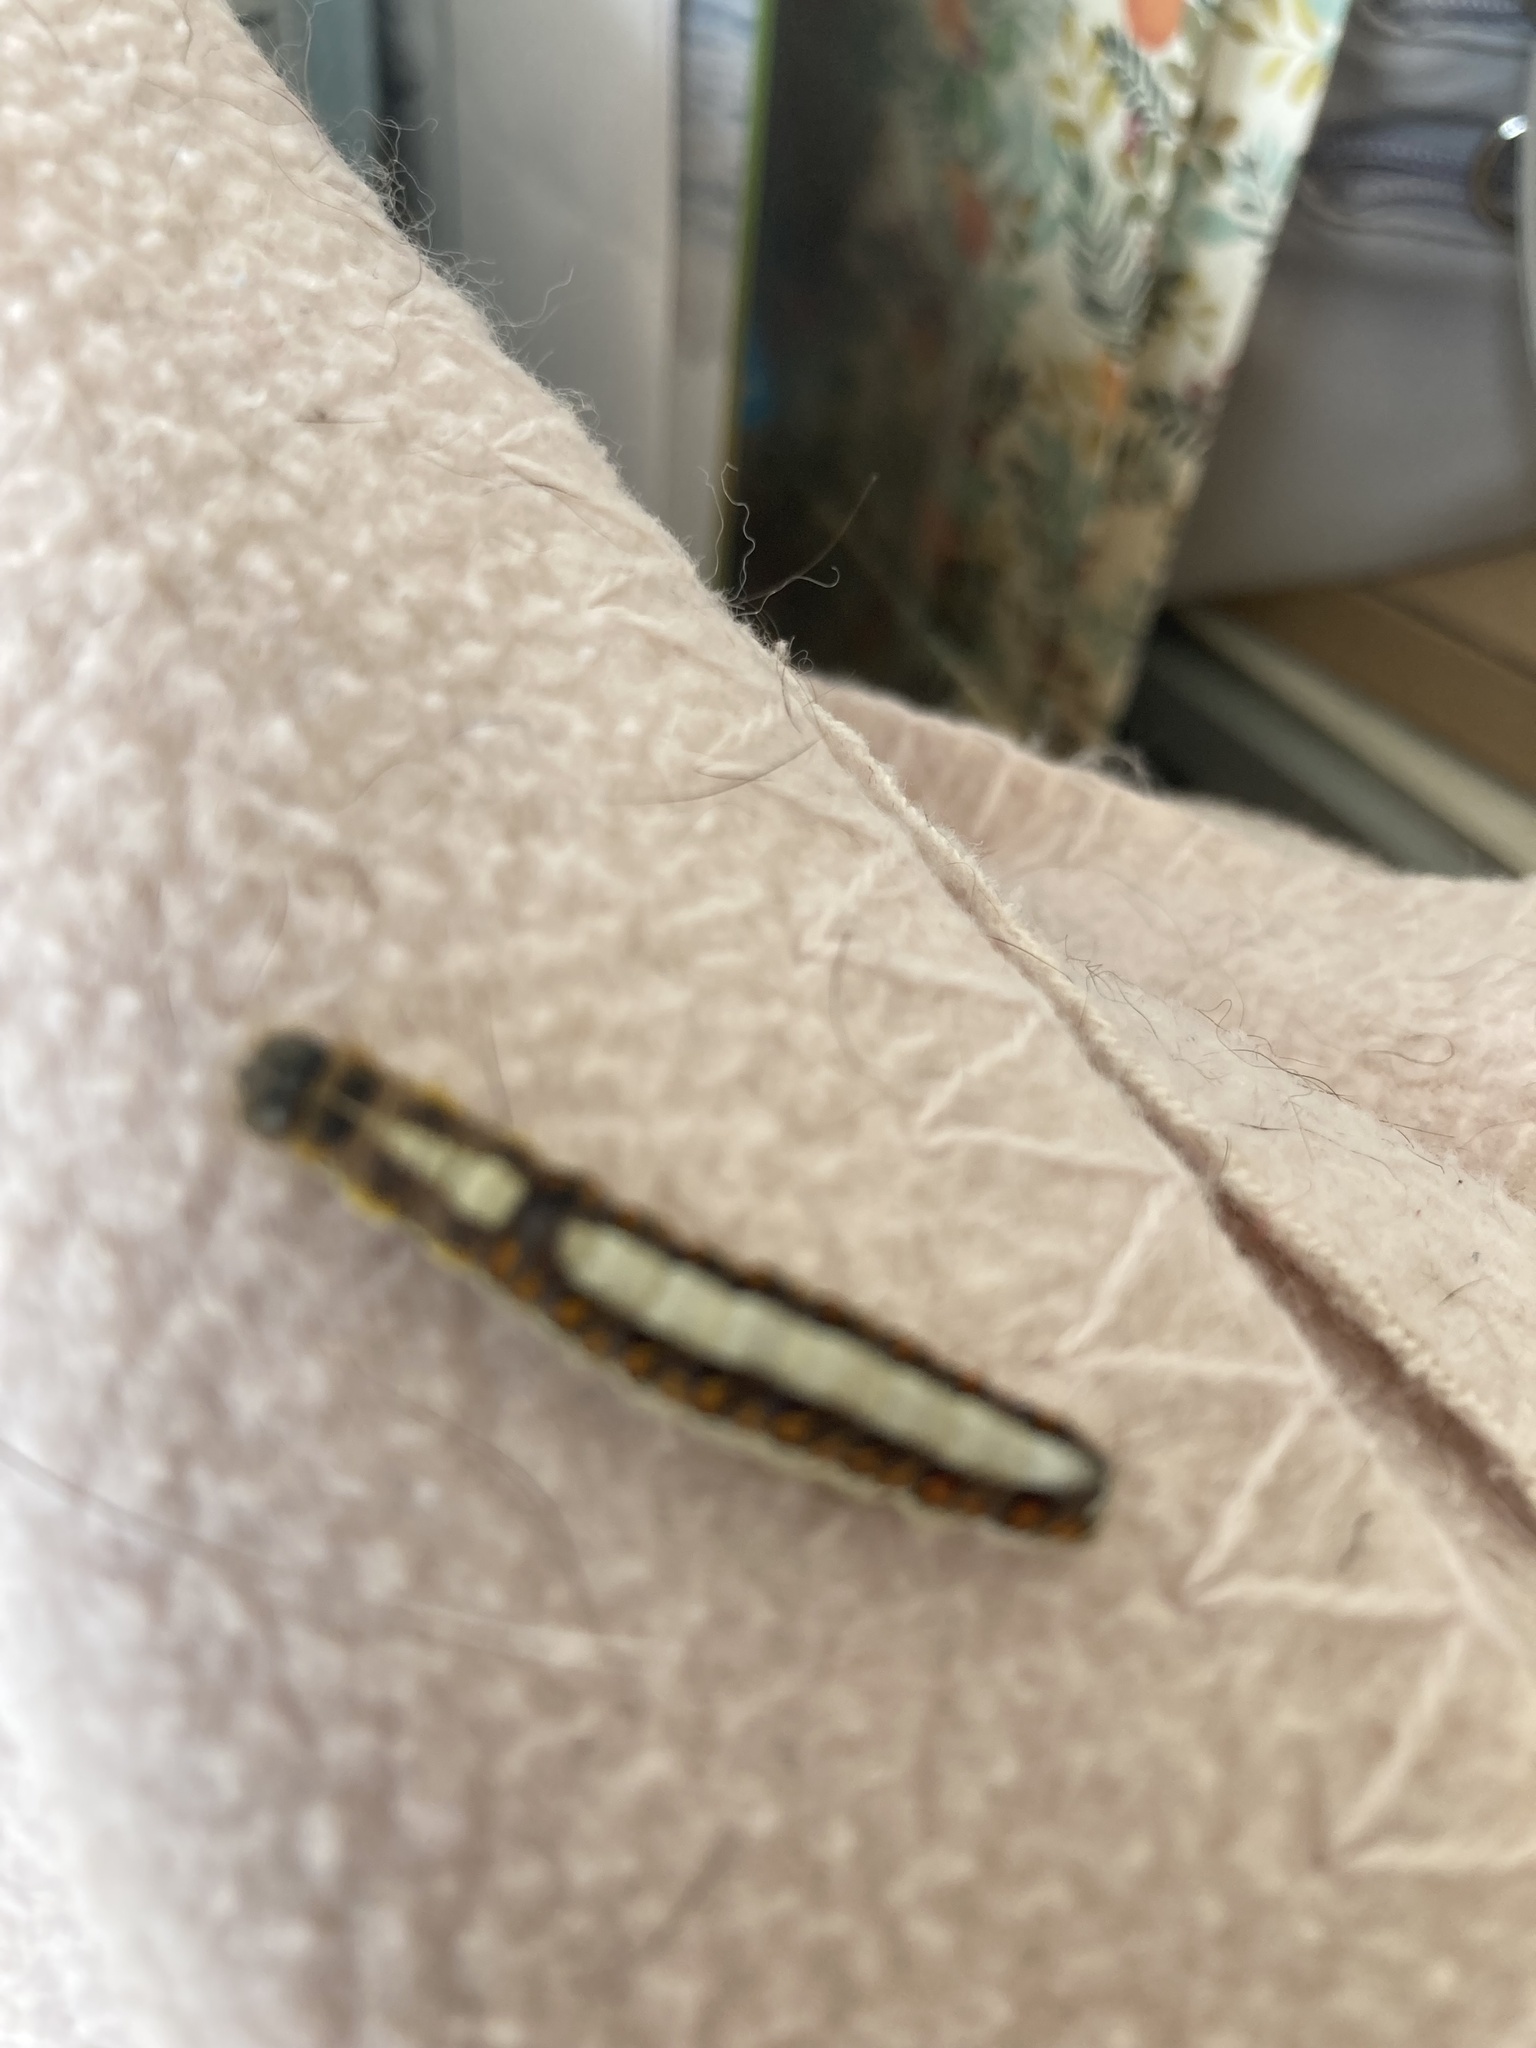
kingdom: Animalia
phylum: Arthropoda
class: Insecta
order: Lepidoptera
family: Noctuidae
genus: Acronicta
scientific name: Acronicta psi
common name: Grey dagger
